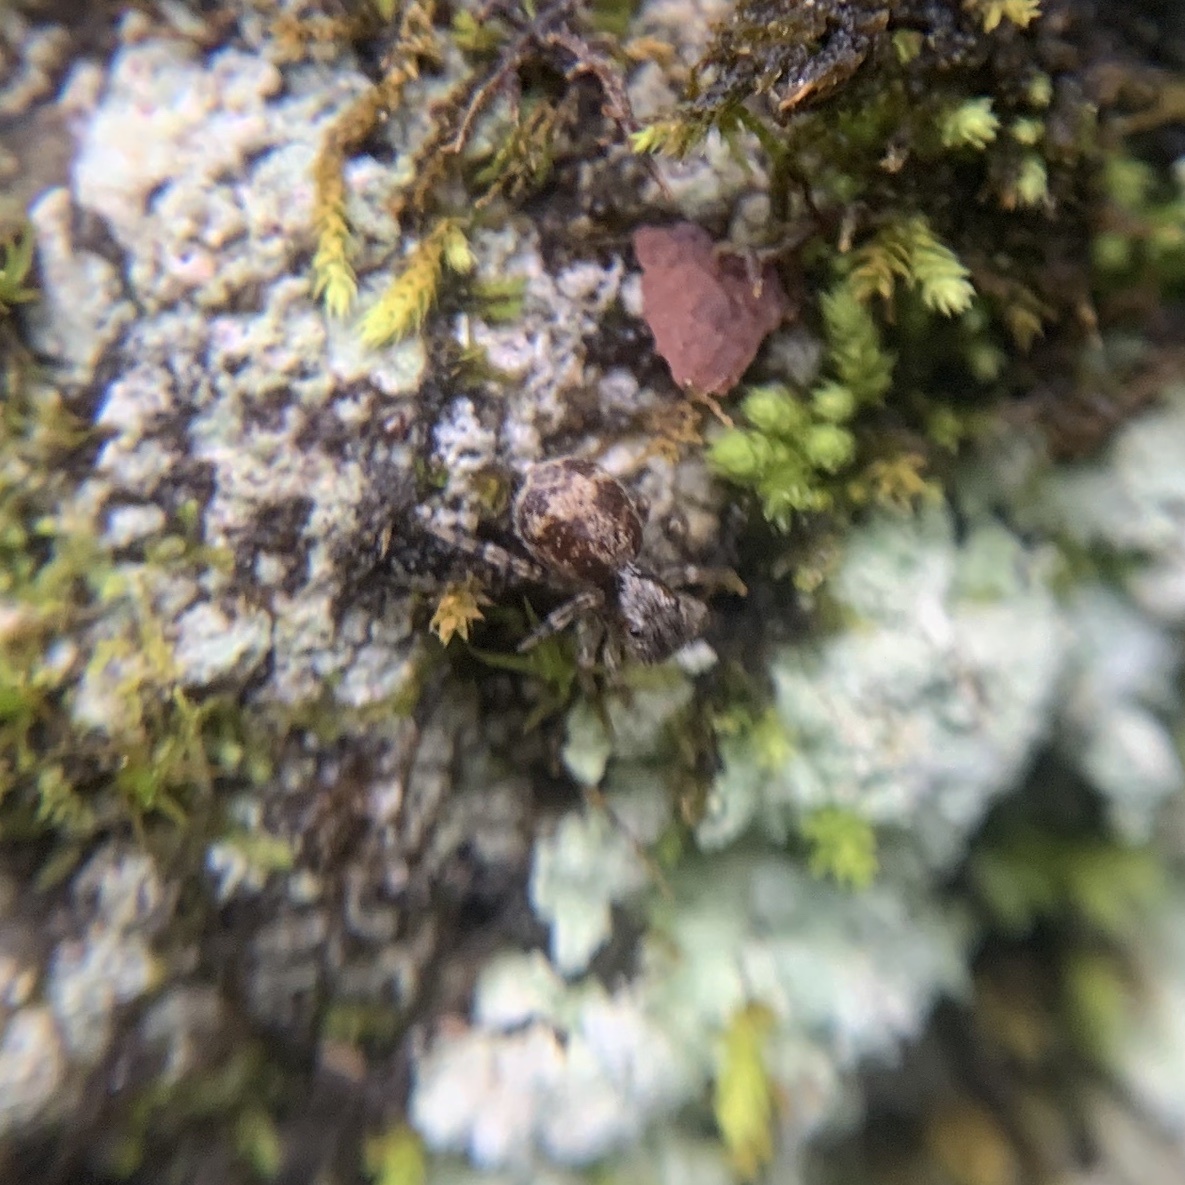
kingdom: Animalia
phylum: Arthropoda
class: Arachnida
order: Araneae
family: Salticidae
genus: Naphrys
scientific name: Naphrys pulex
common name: Flea jumping spider
